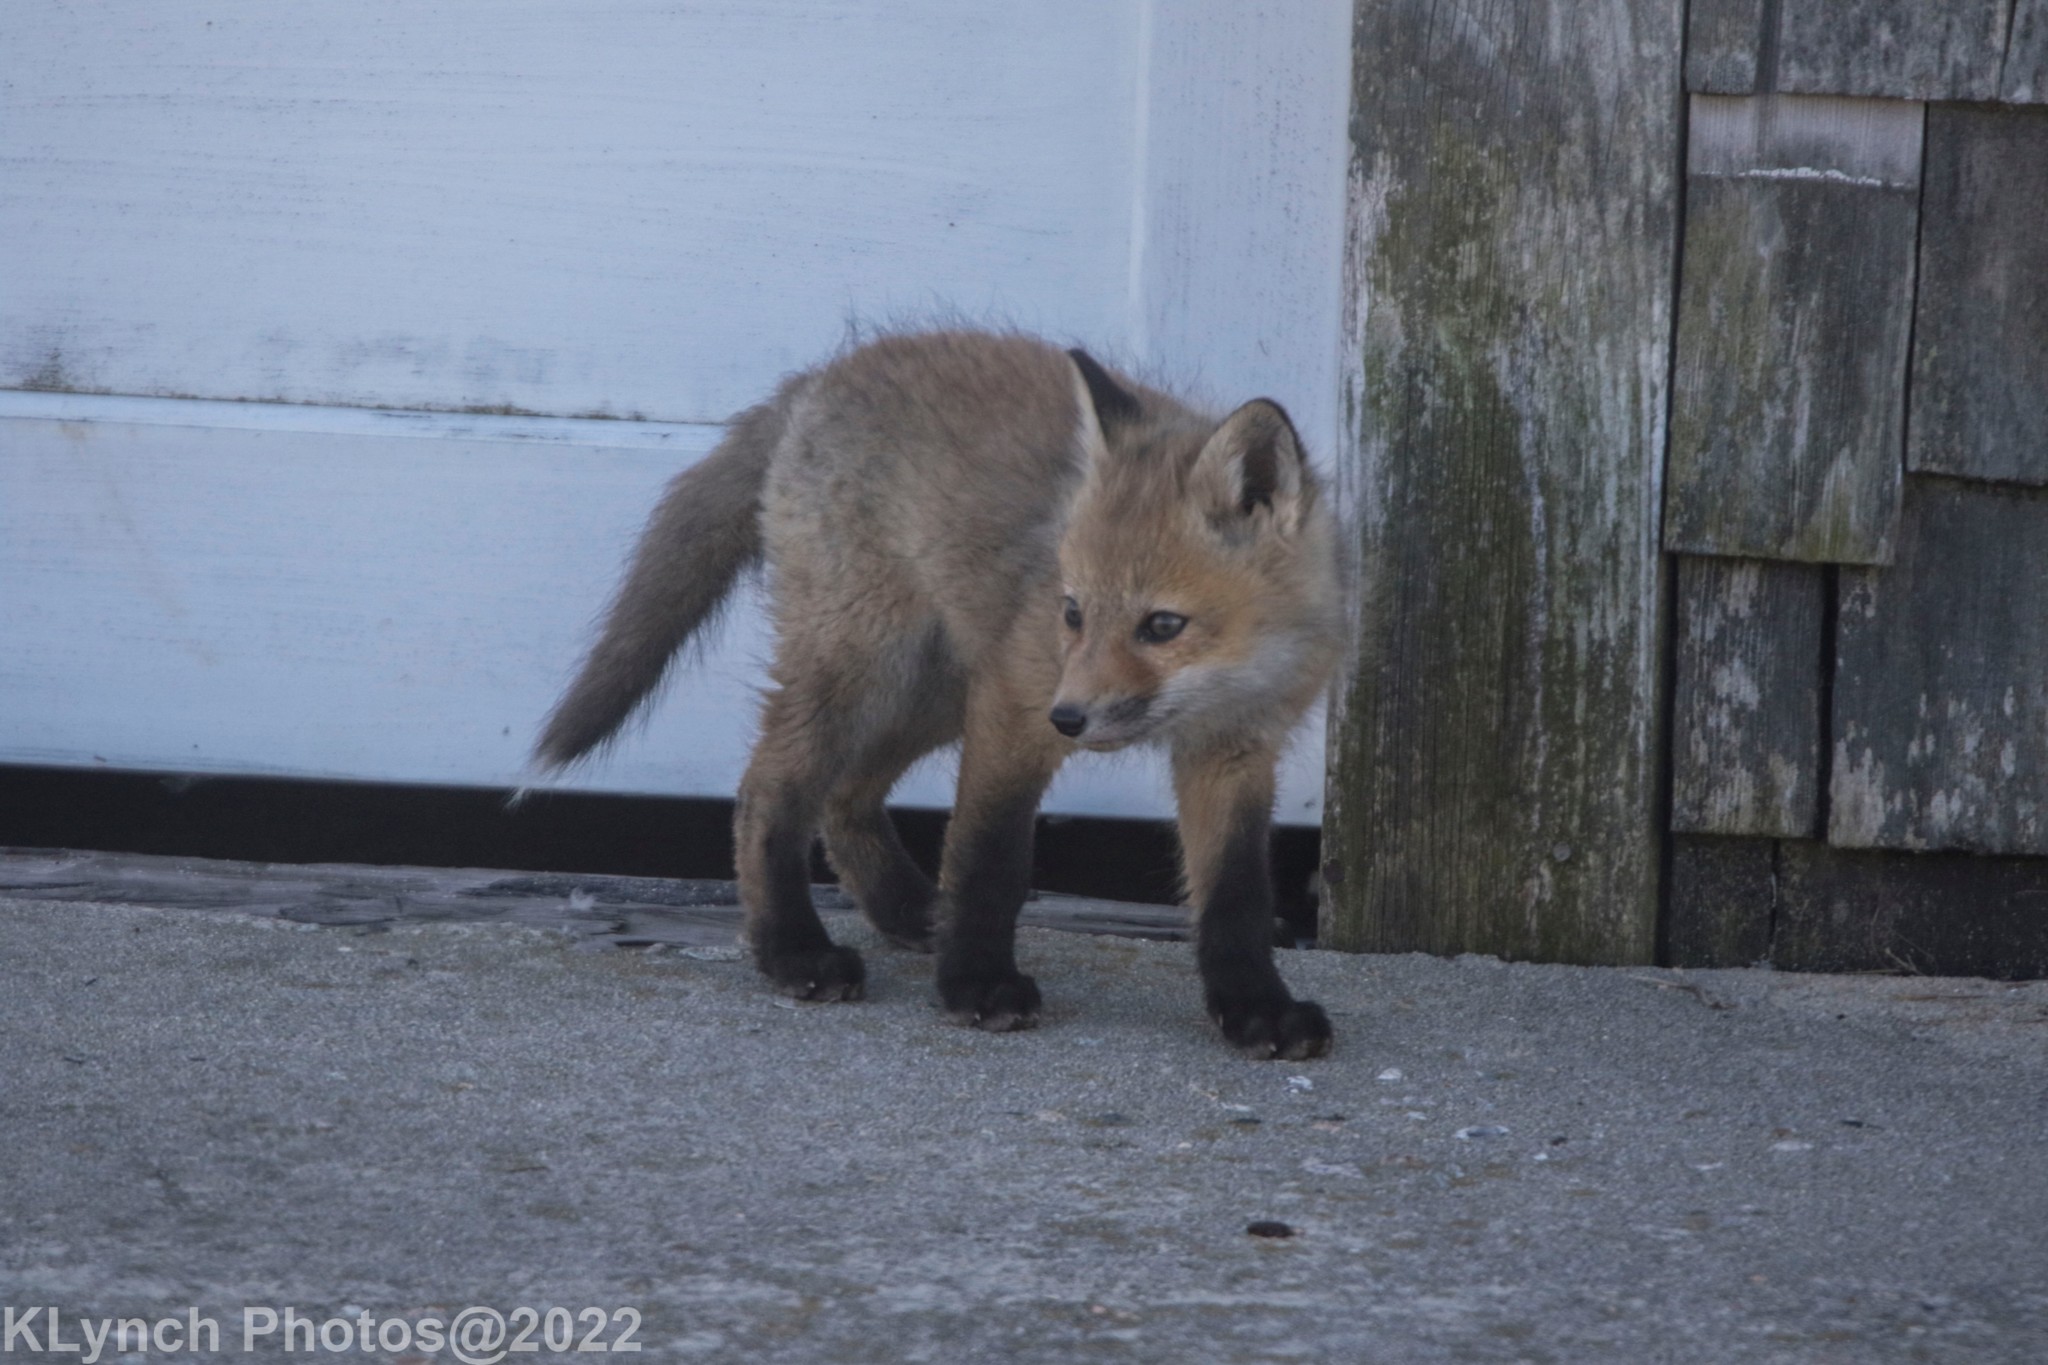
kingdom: Animalia
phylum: Chordata
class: Mammalia
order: Carnivora
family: Canidae
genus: Vulpes
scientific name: Vulpes vulpes
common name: Red fox
